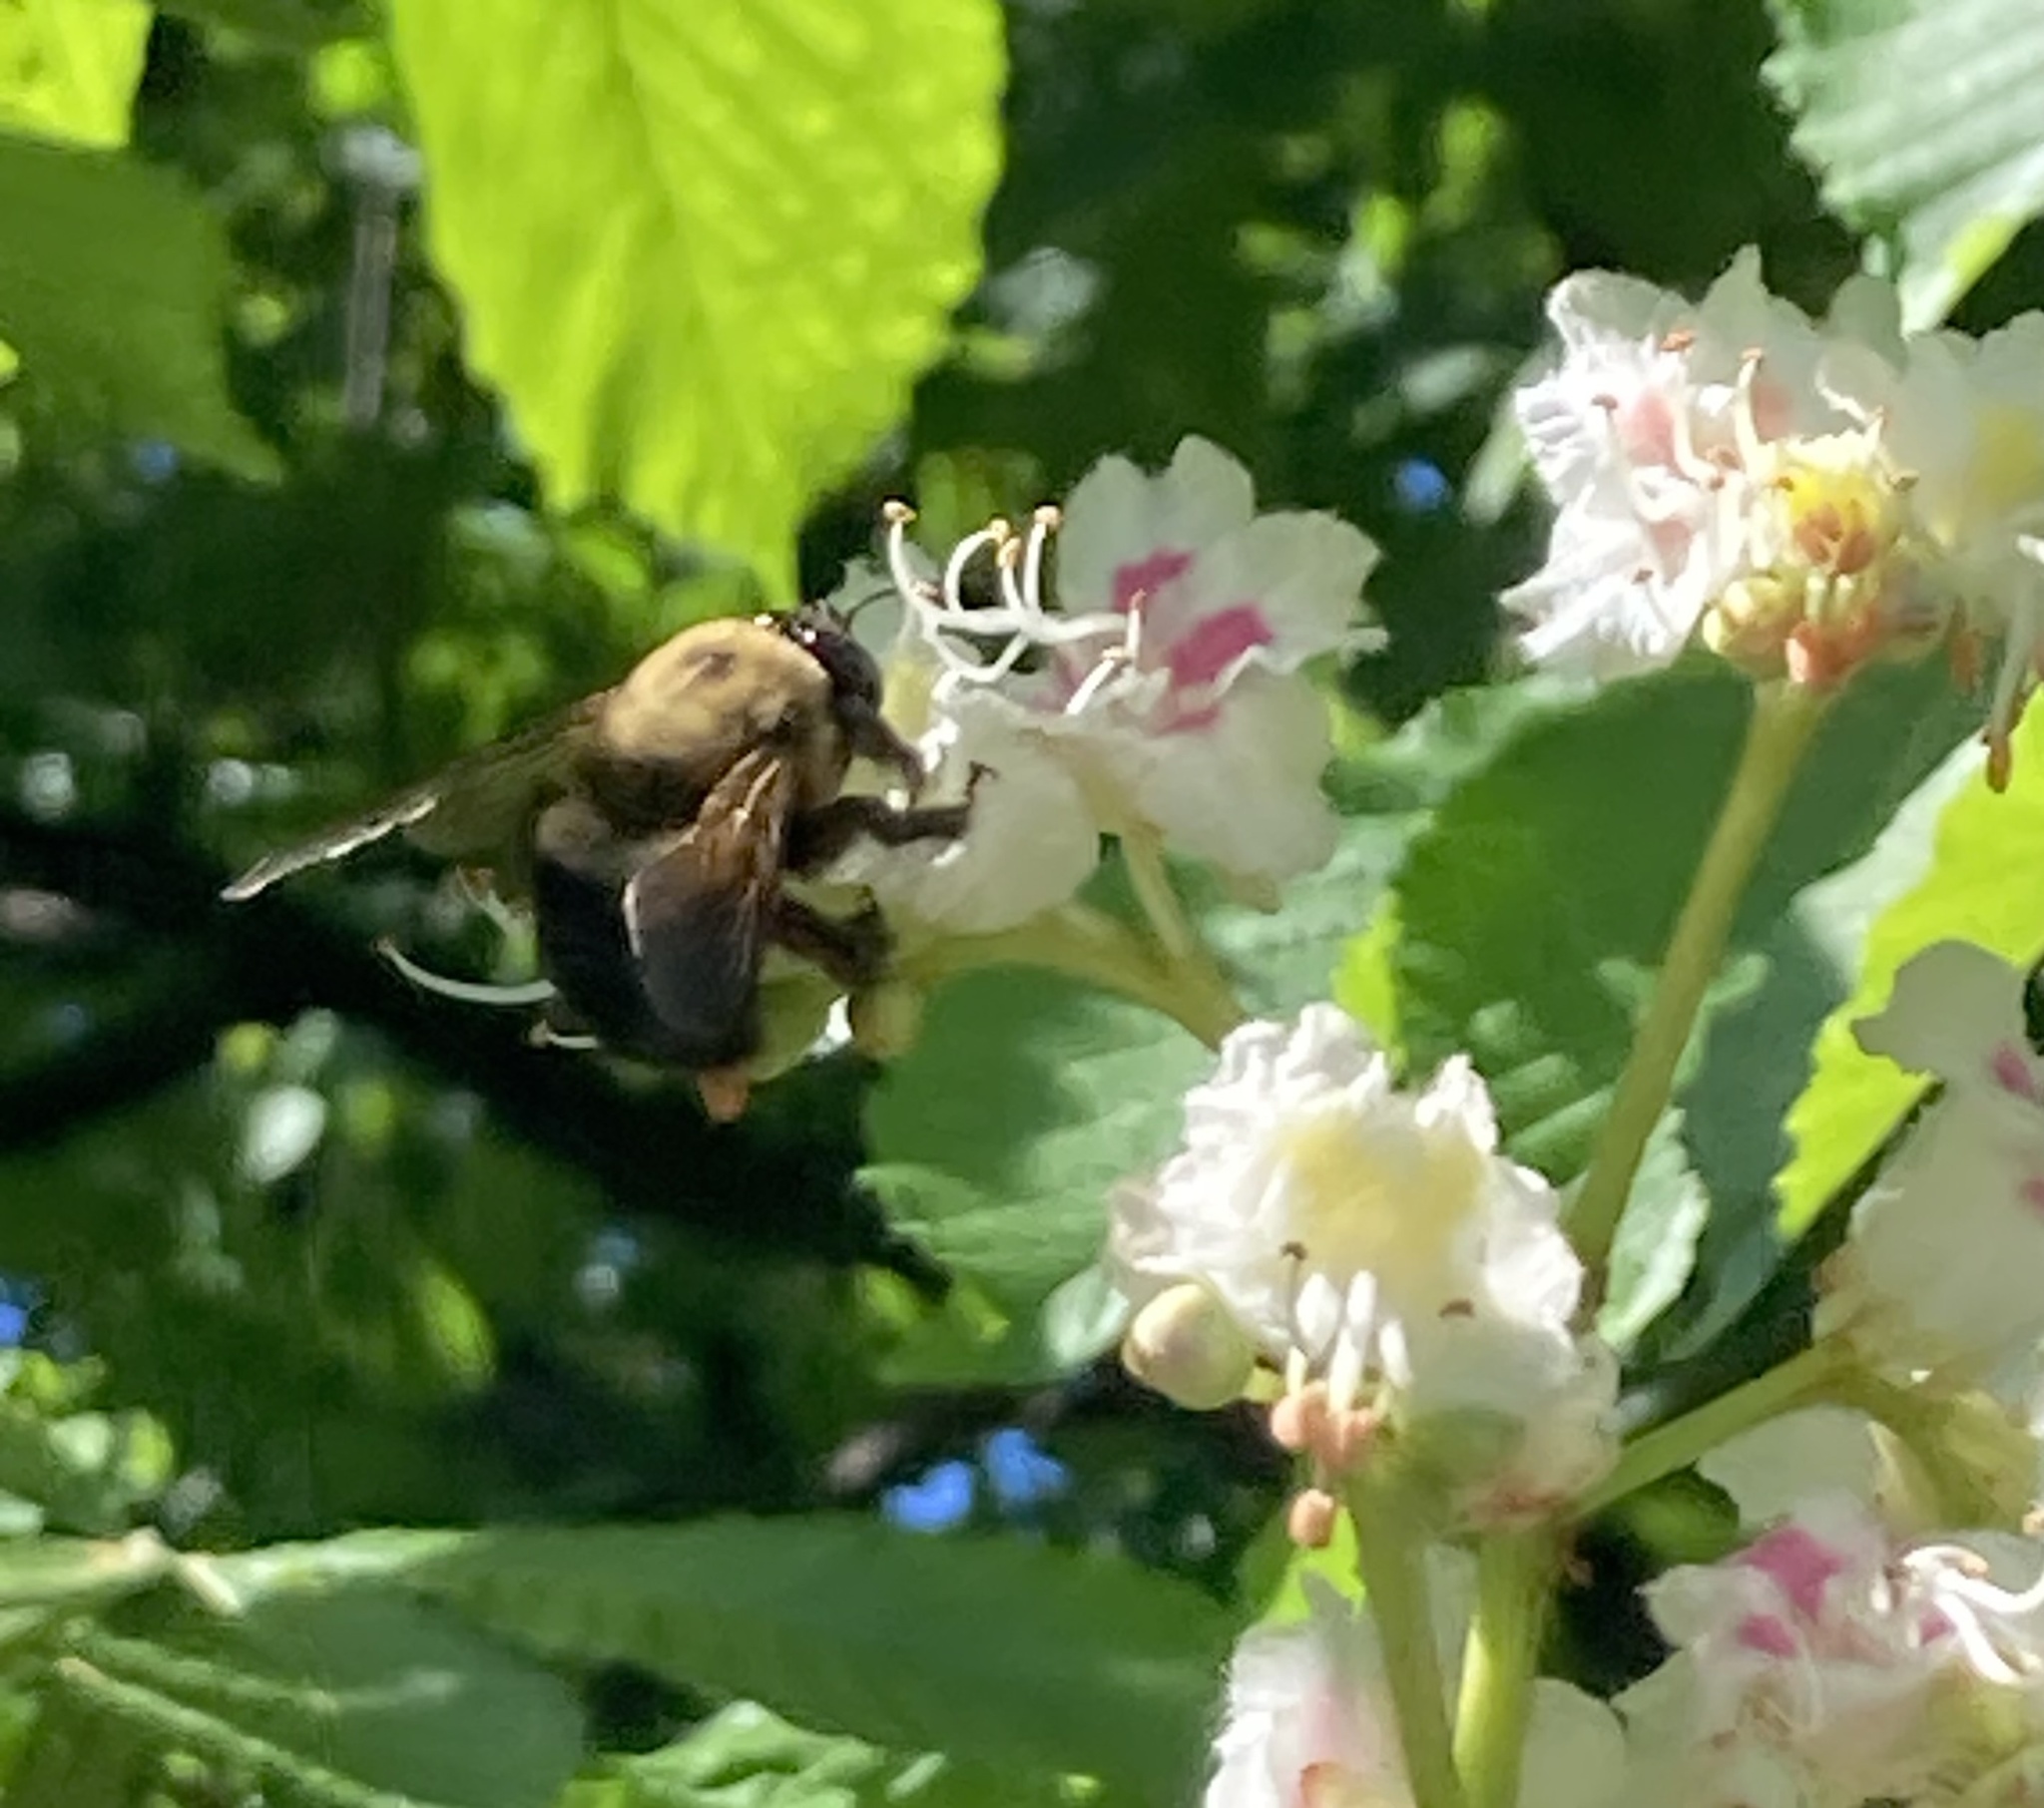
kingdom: Animalia
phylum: Arthropoda
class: Insecta
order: Hymenoptera
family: Apidae
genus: Xylocopa
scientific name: Xylocopa virginica
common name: Carpenter bee
